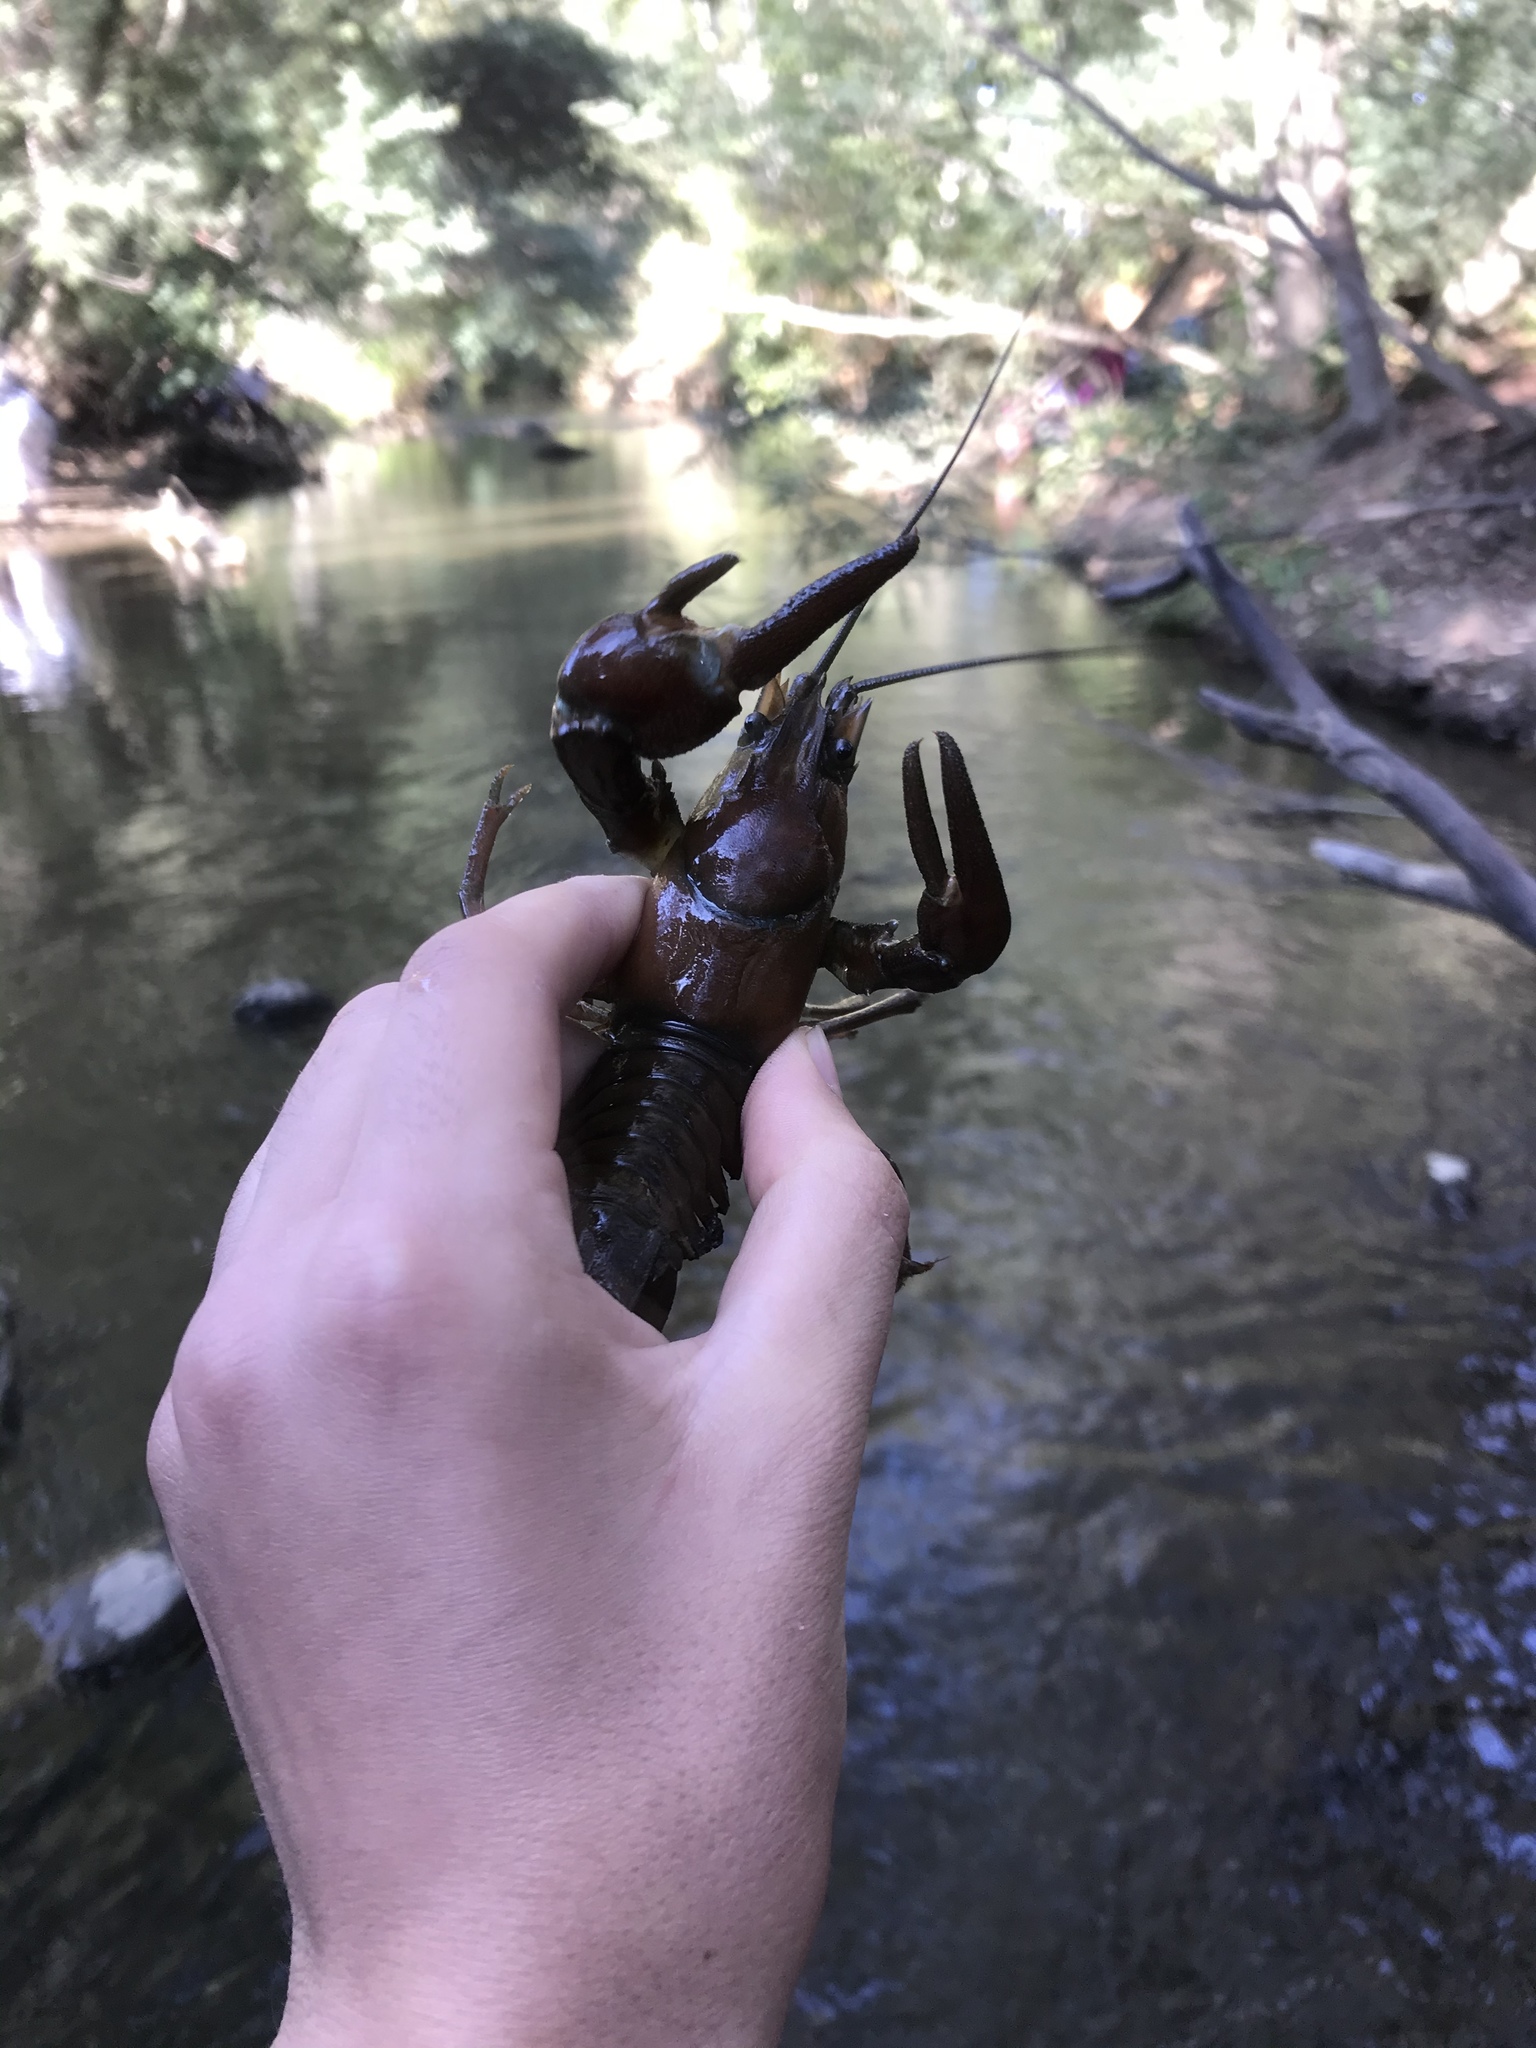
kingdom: Animalia
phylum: Arthropoda
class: Malacostraca
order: Decapoda
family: Astacidae
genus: Pacifastacus
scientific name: Pacifastacus leniusculus
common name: Signal crayfish
